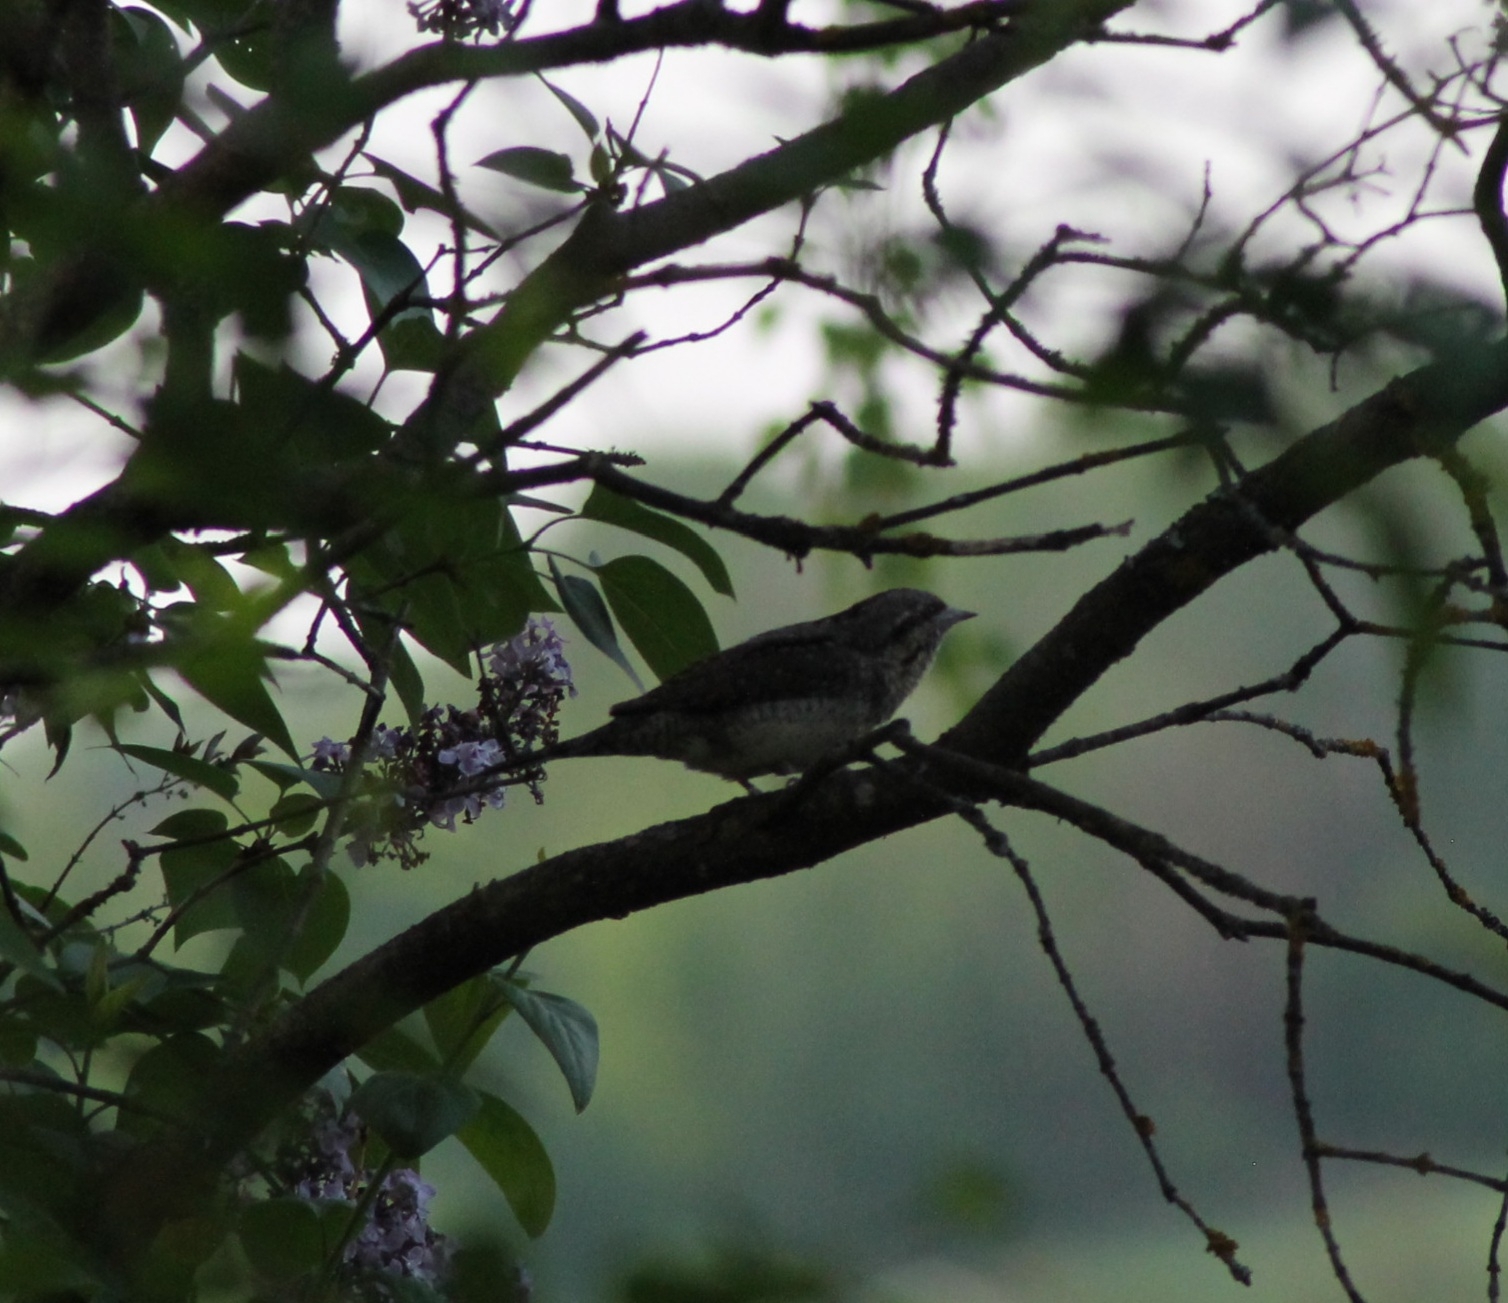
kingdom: Animalia
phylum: Chordata
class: Aves
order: Piciformes
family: Picidae
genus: Jynx
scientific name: Jynx torquilla
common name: Eurasian wryneck
